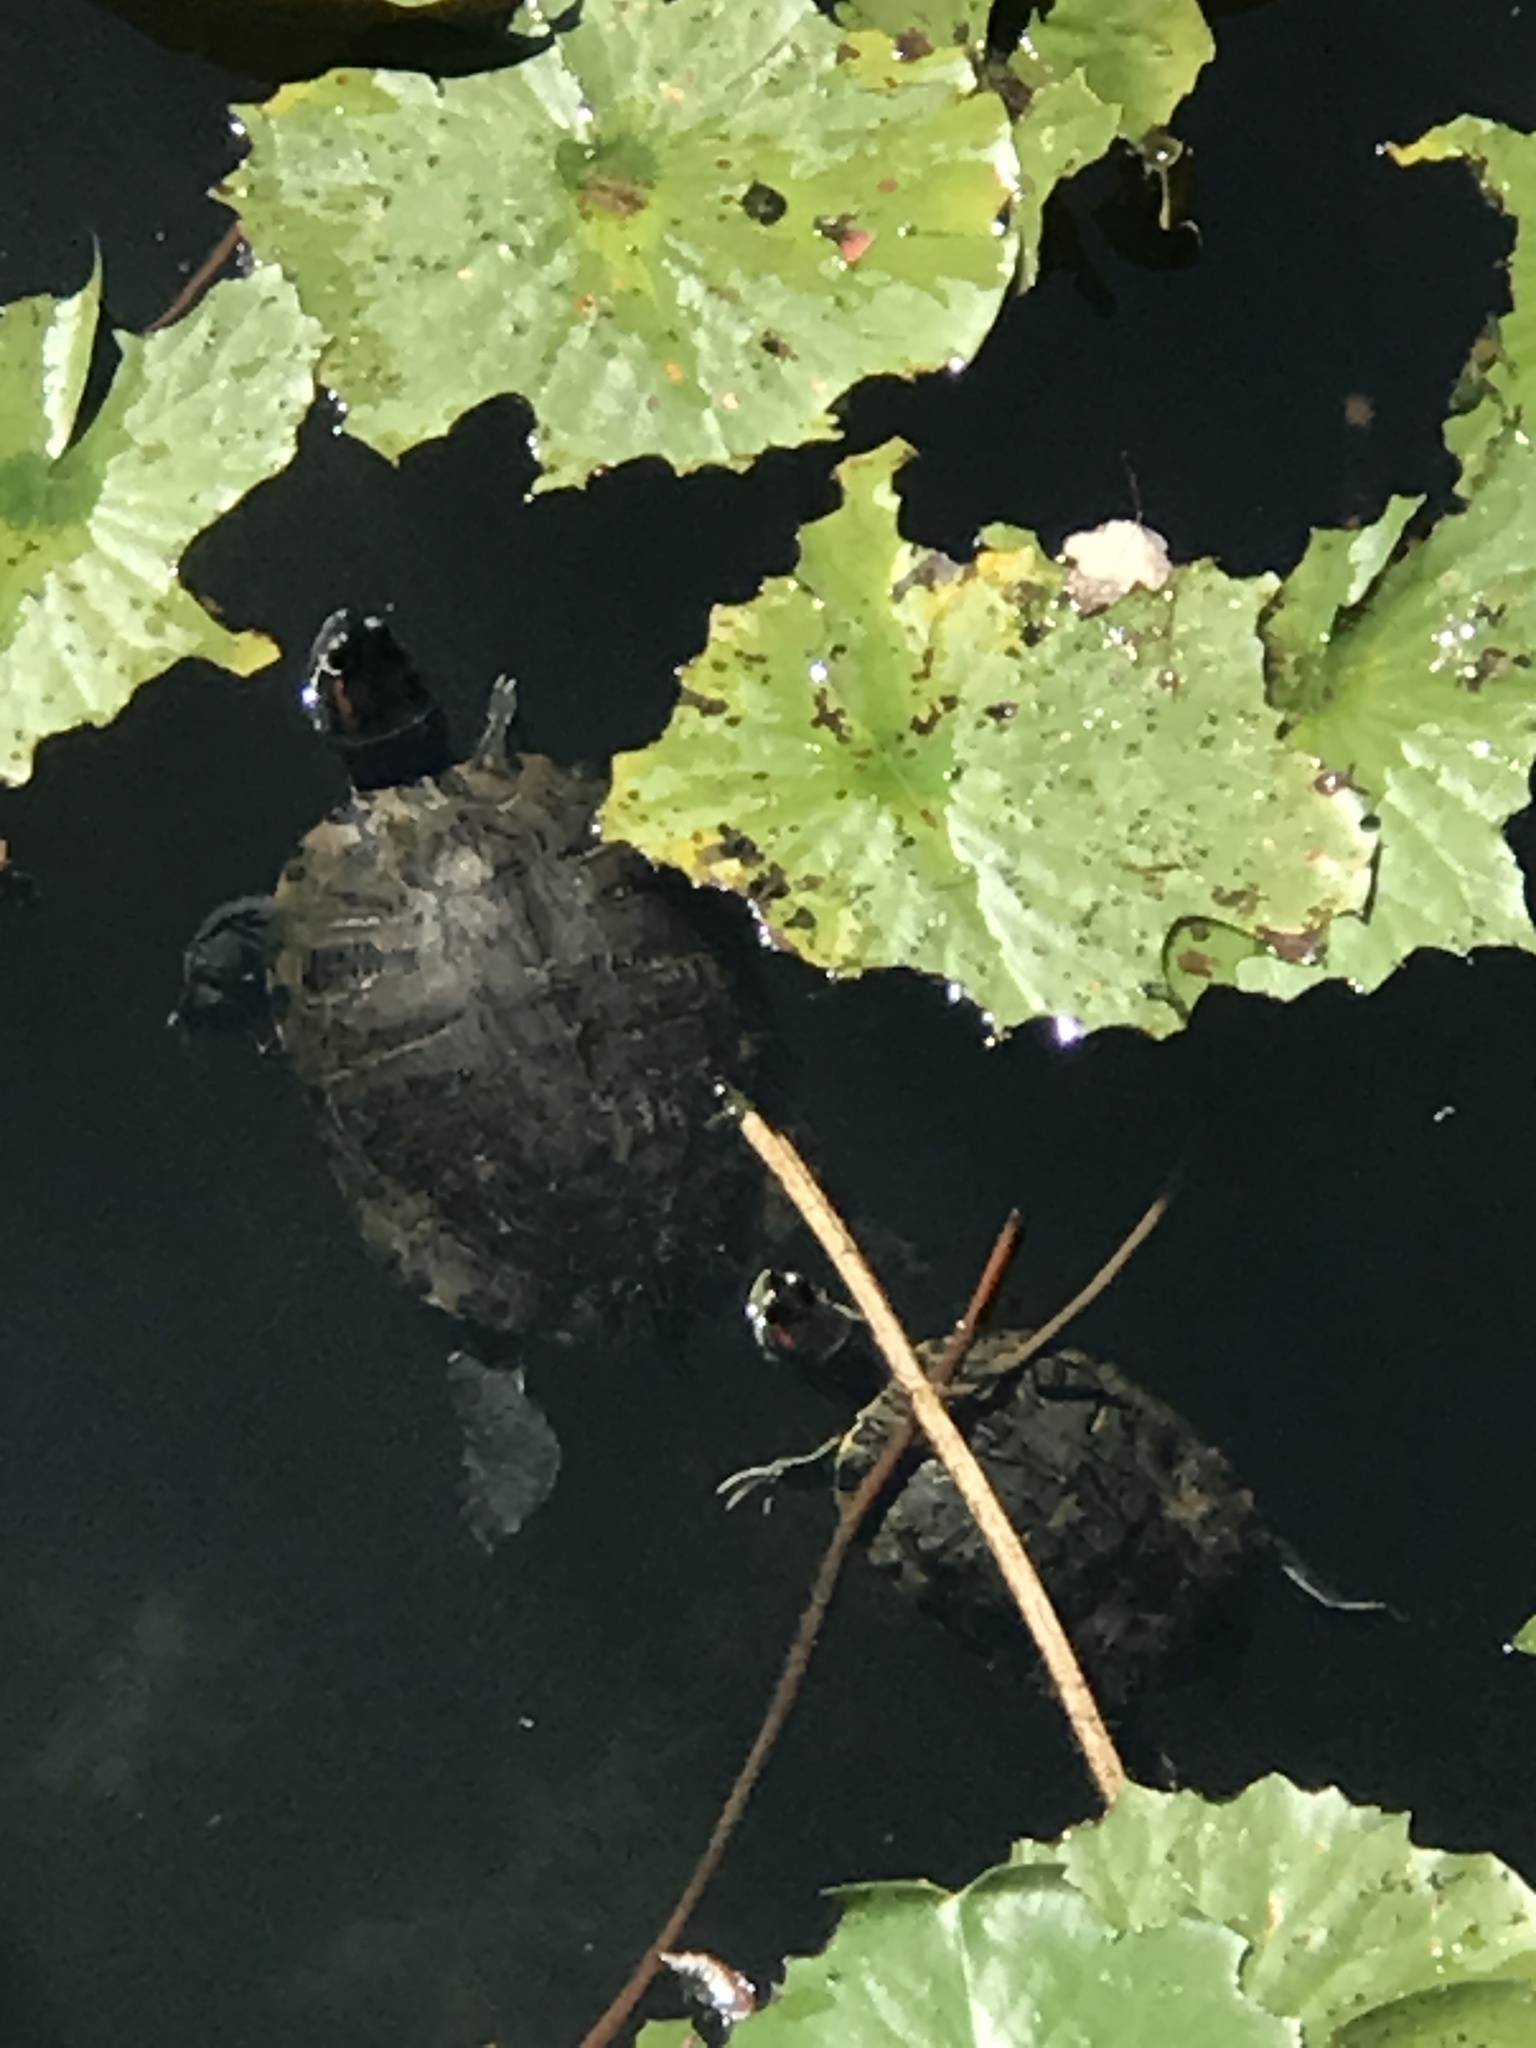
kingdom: Animalia
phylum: Chordata
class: Testudines
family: Emydidae
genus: Trachemys
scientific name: Trachemys scripta
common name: Slider
